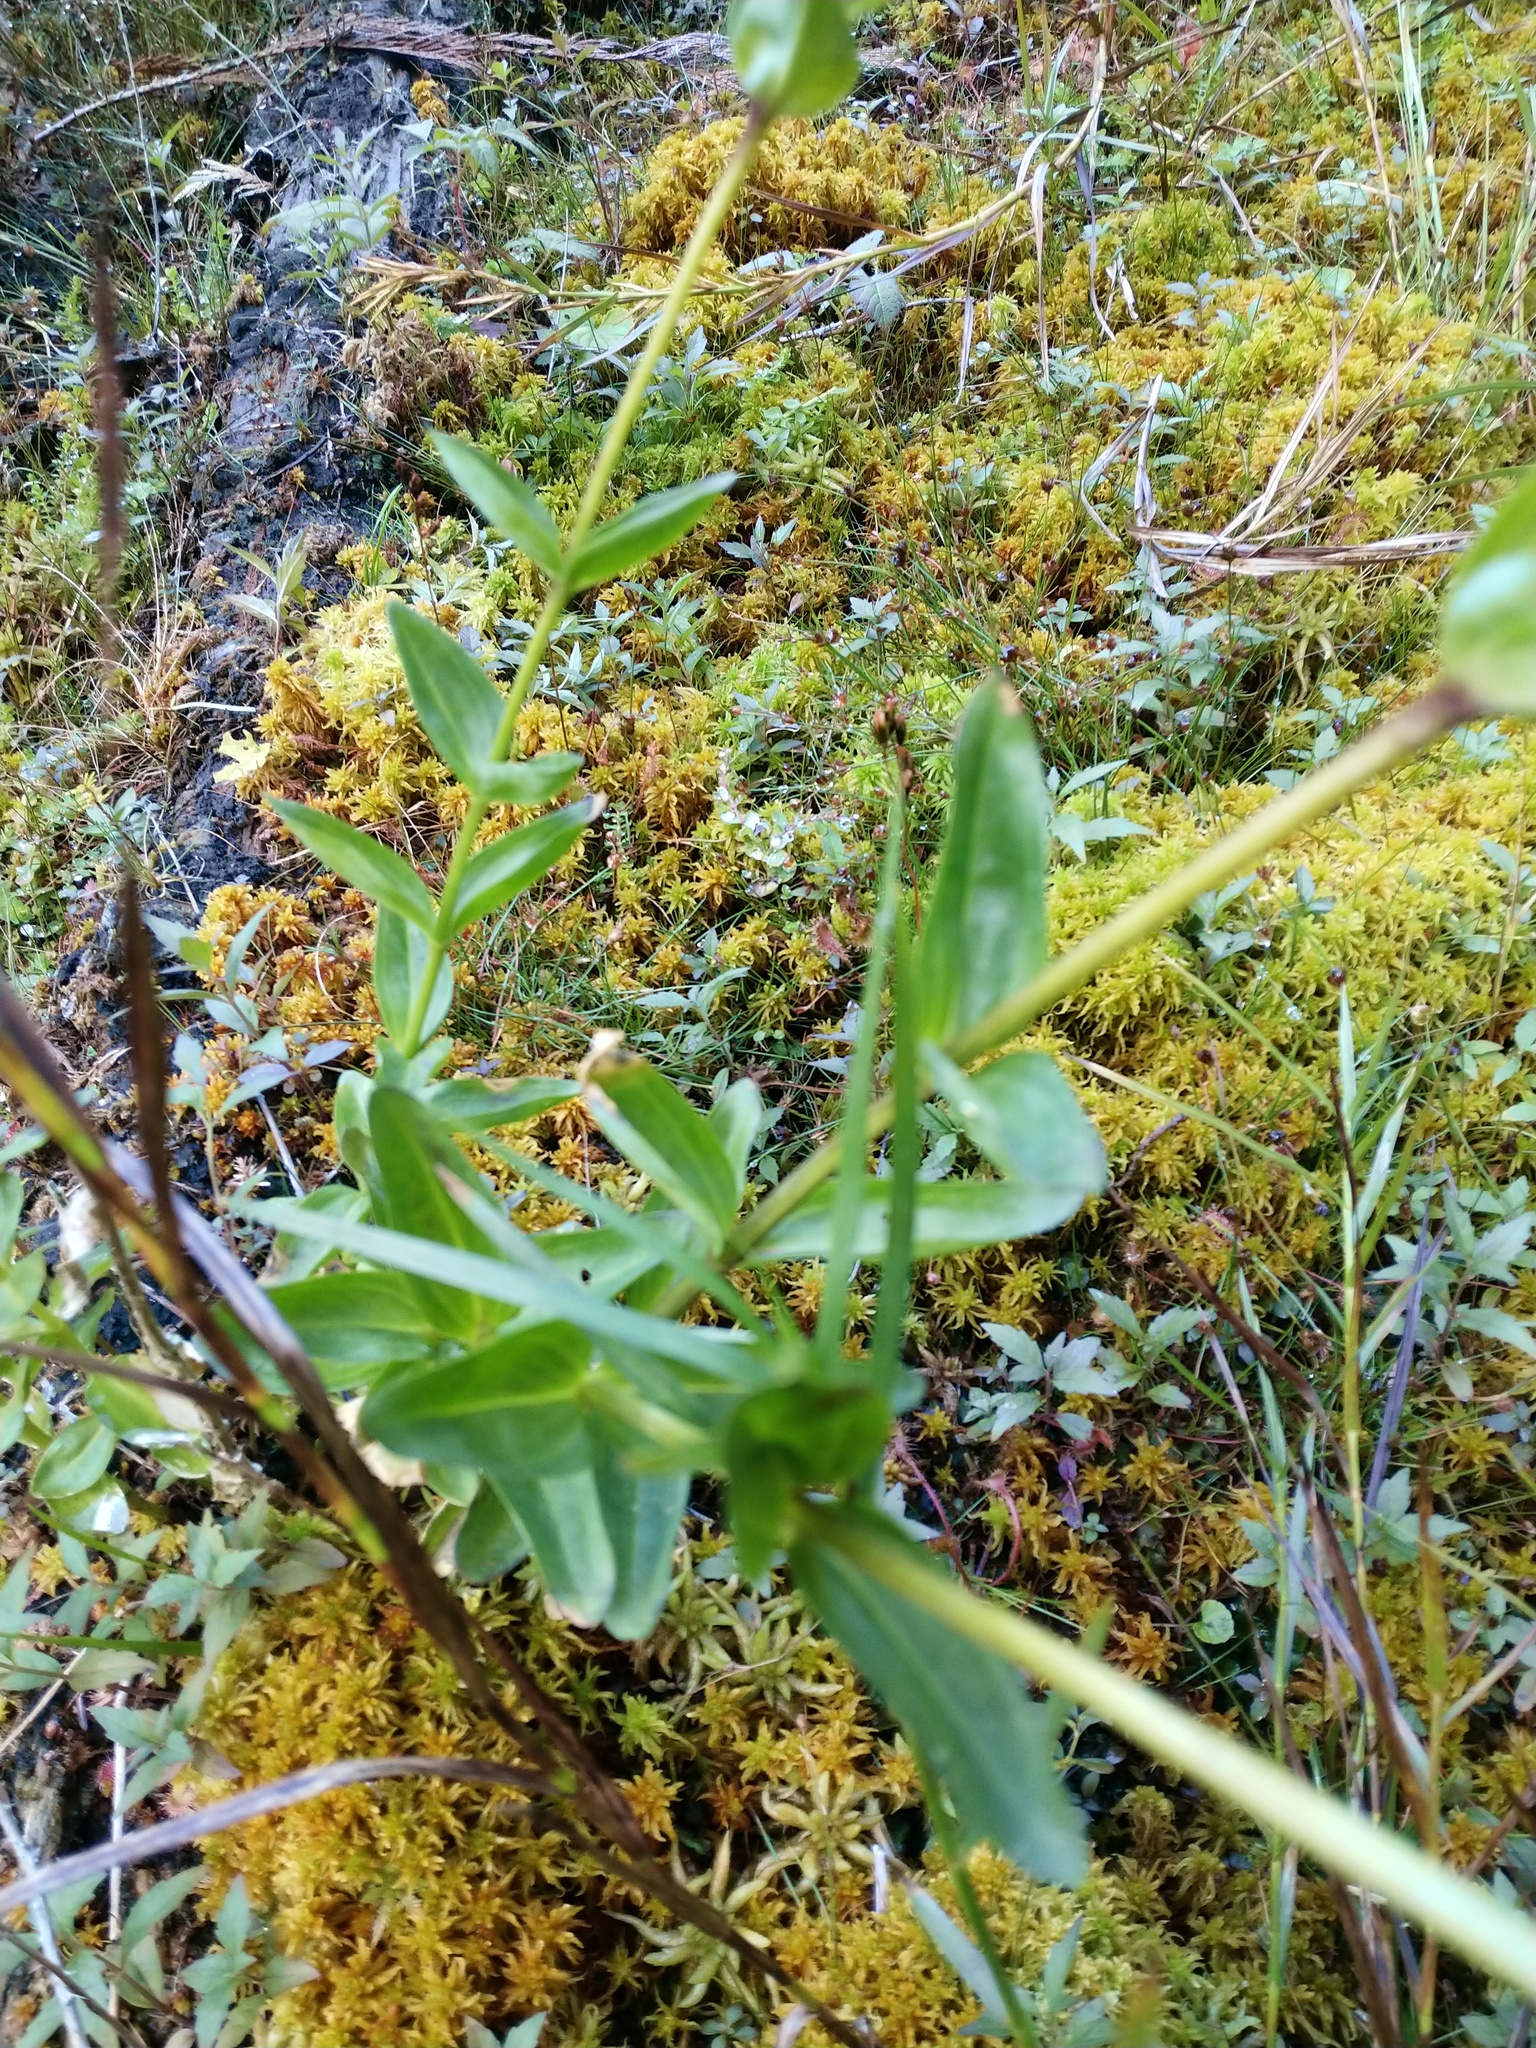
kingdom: Plantae
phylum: Tracheophyta
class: Magnoliopsida
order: Gentianales
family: Gentianaceae
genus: Gentiana
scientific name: Gentiana sceptrum
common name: Pacific gentian
